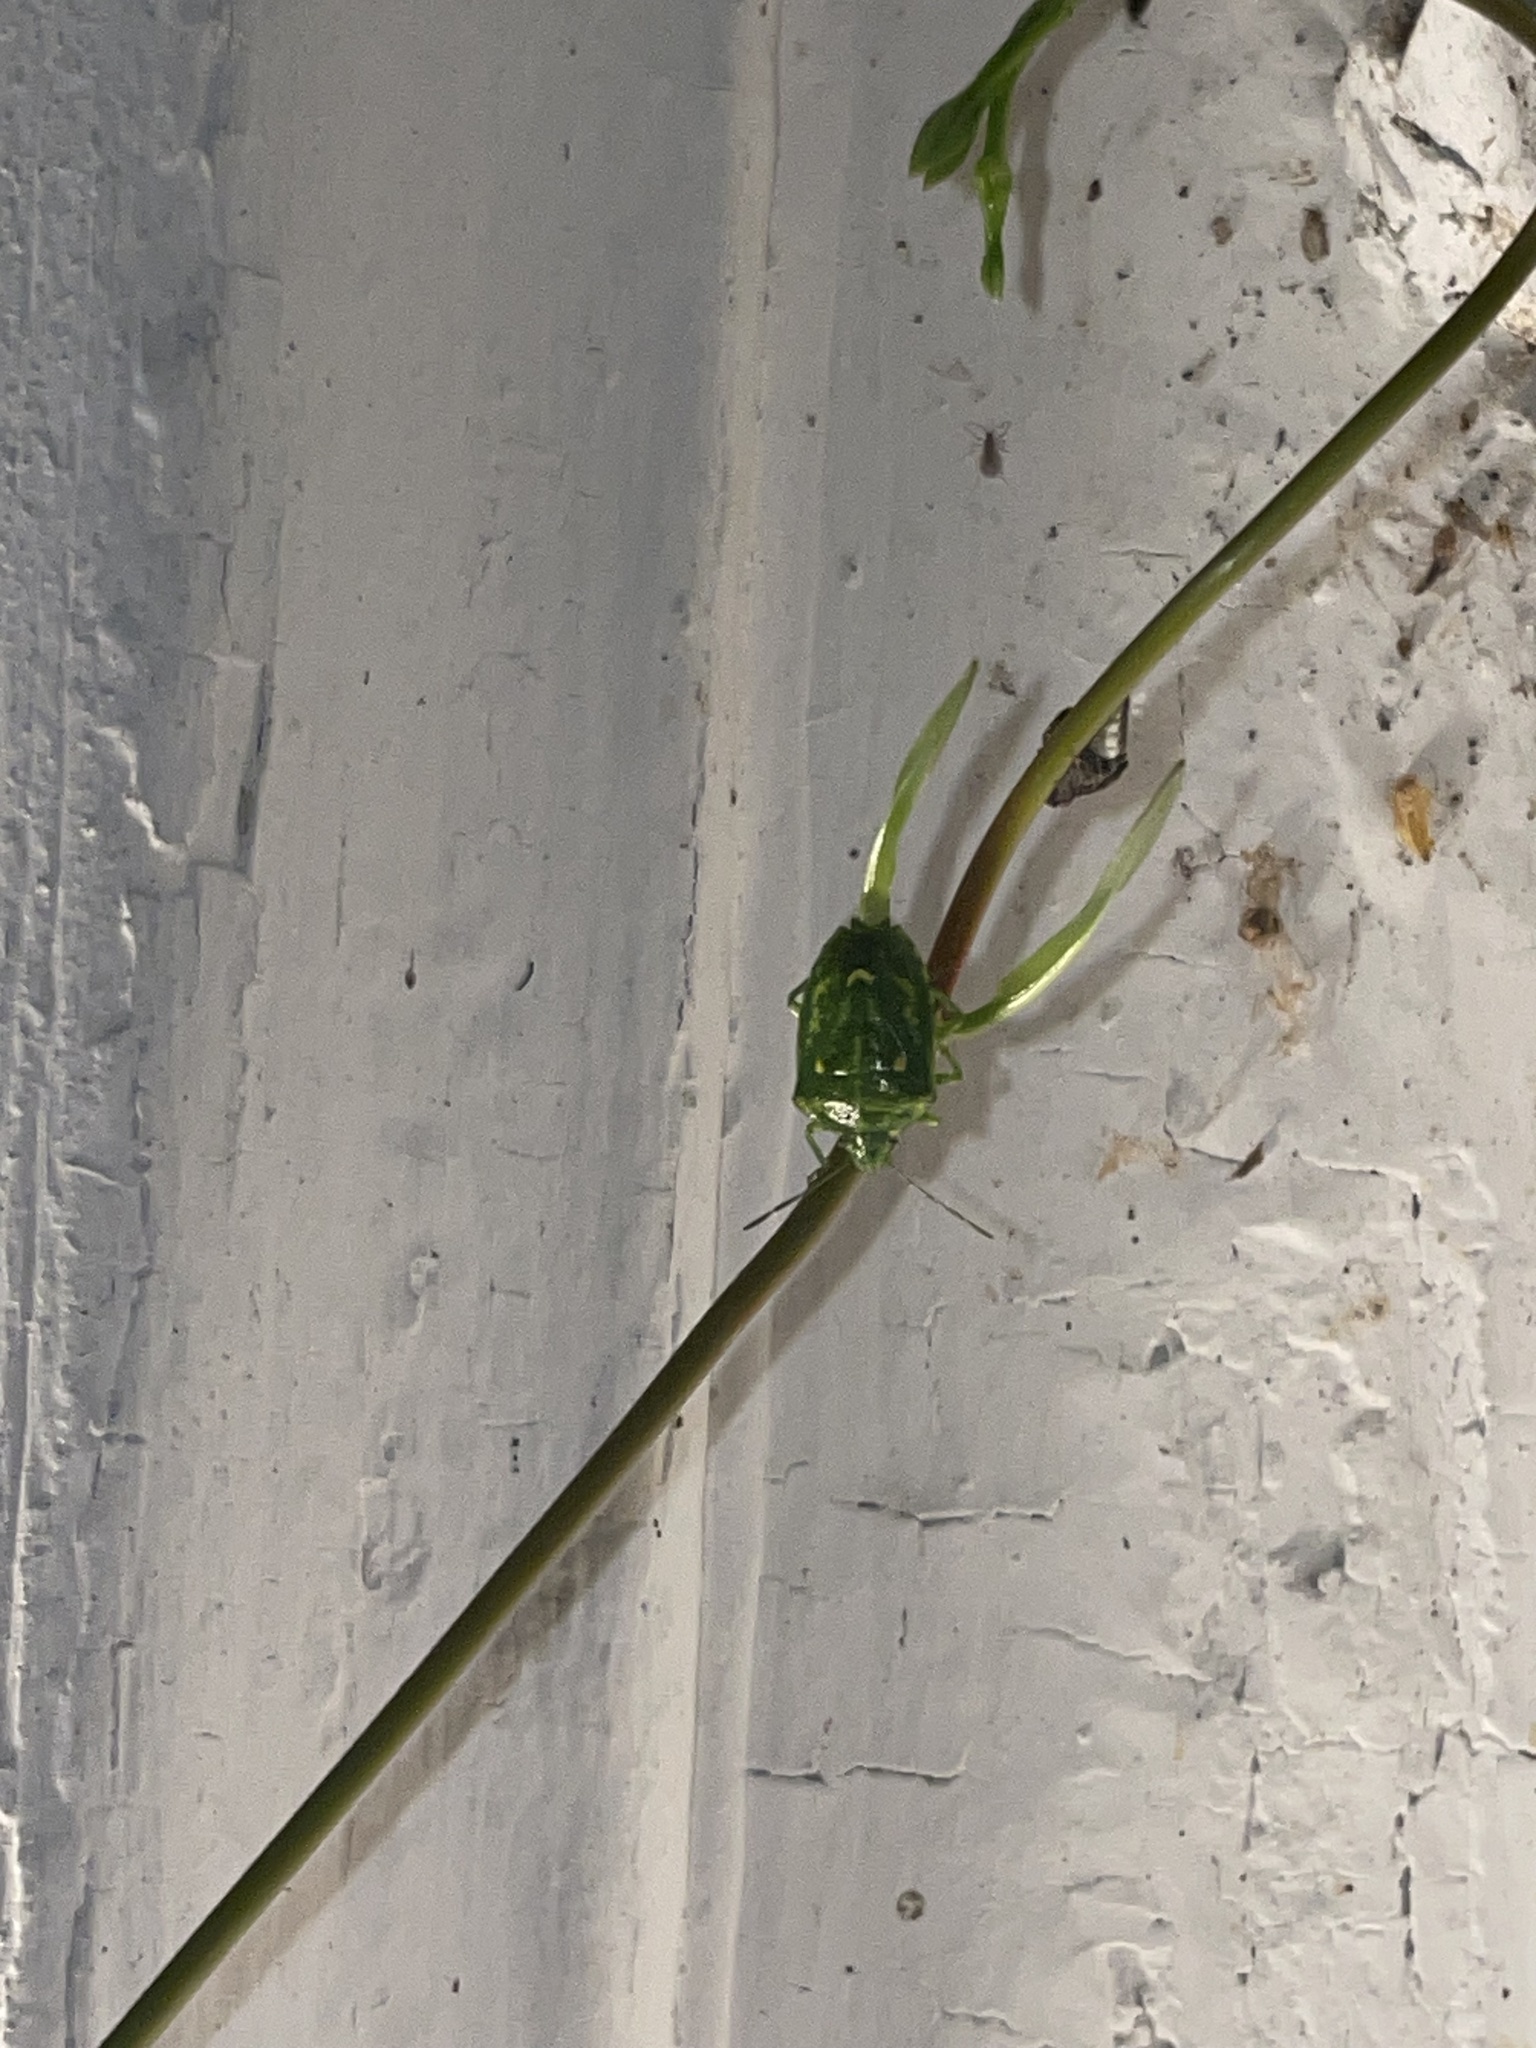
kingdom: Animalia
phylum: Arthropoda
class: Insecta
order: Hemiptera
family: Pentatomidae
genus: Banasa
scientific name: Banasa euchlora
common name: Cedar berry bug
